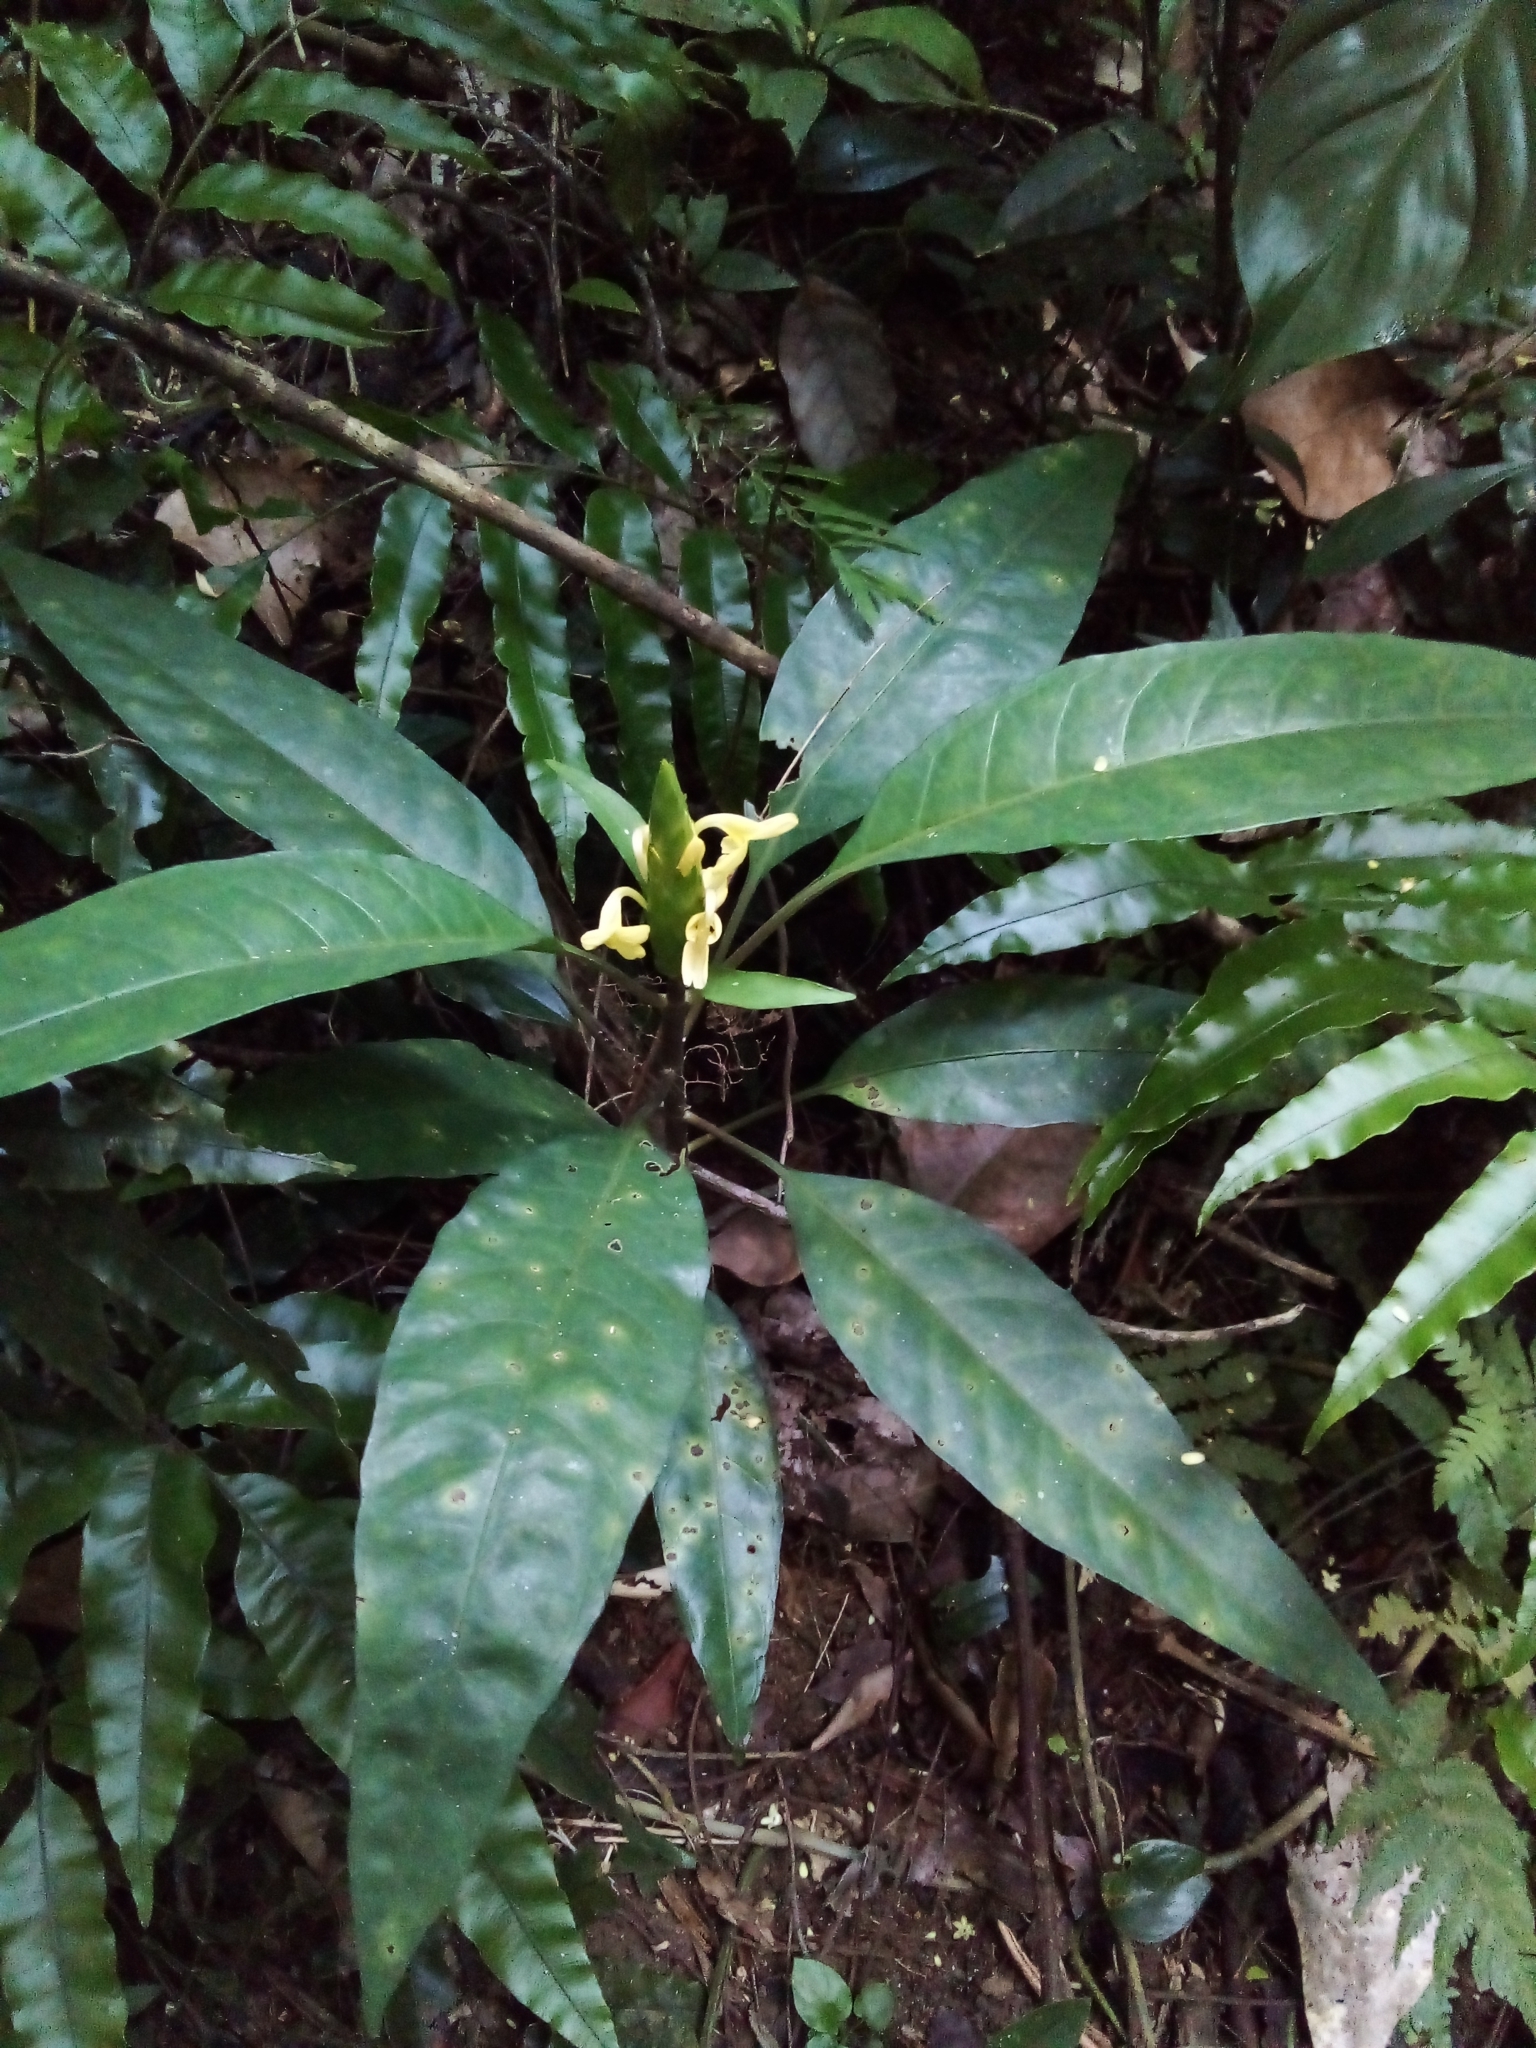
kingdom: Plantae
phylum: Tracheophyta
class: Magnoliopsida
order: Lamiales
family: Acanthaceae
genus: Aphelandra
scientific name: Aphelandra prismatica
